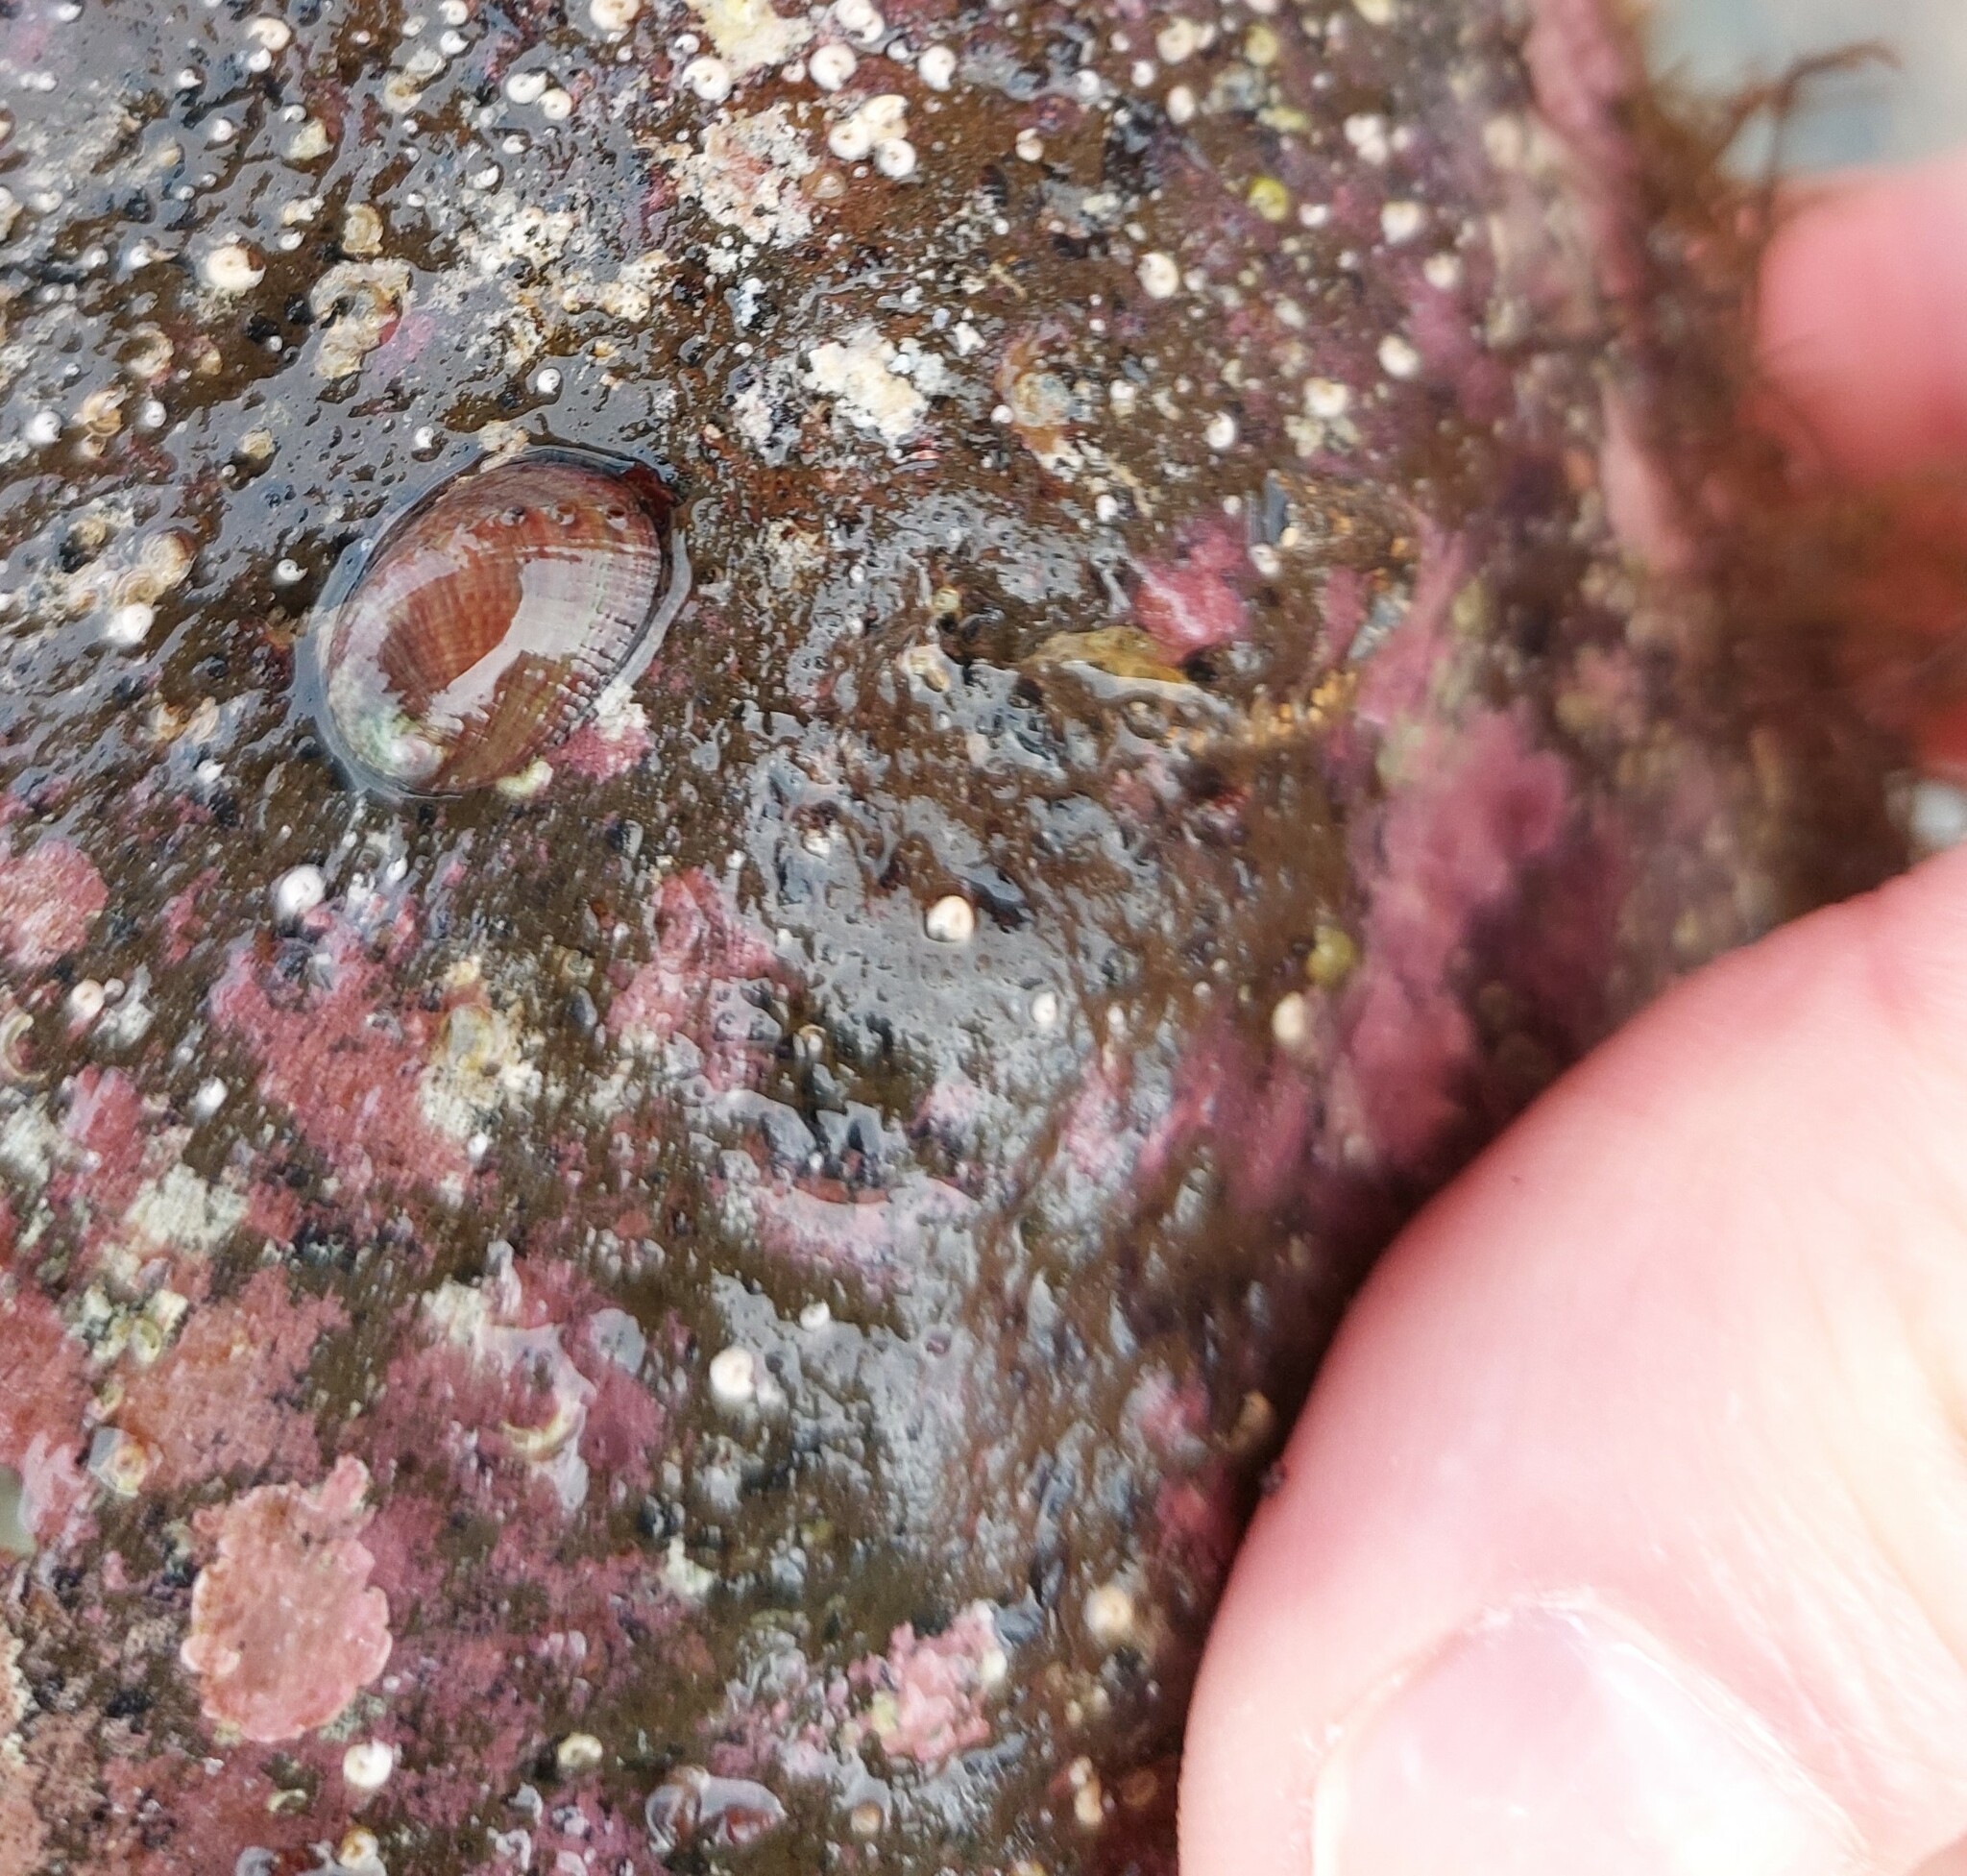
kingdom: Animalia
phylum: Mollusca
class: Gastropoda
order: Lepetellida
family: Haliotidae
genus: Haliotis
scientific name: Haliotis iris
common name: Abalone
